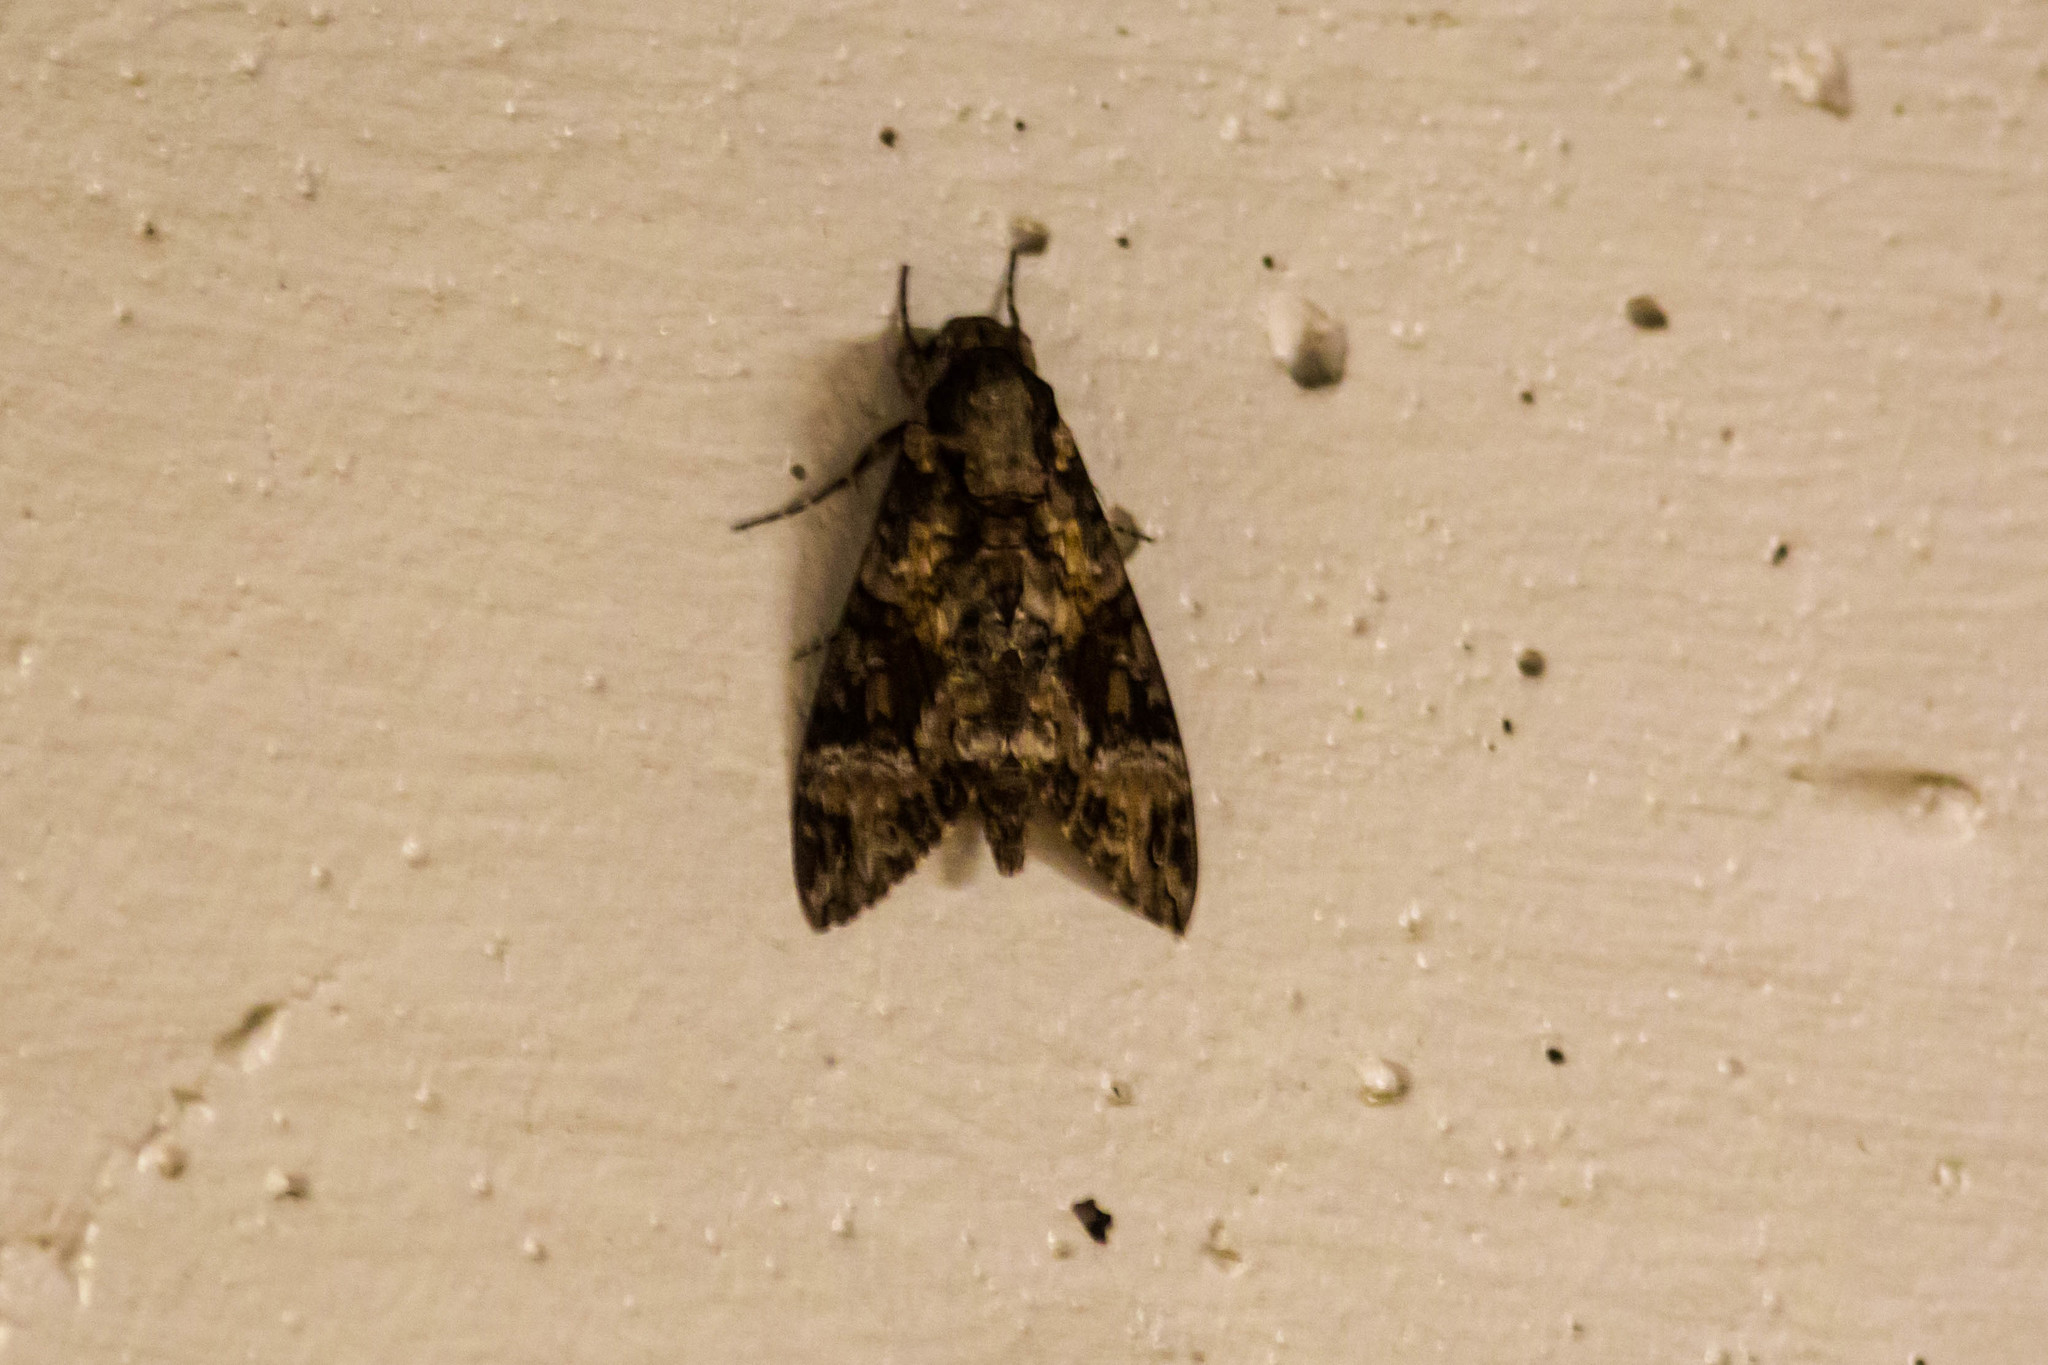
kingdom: Animalia
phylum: Arthropoda
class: Insecta
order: Lepidoptera
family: Sphingidae
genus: Agrius
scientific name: Agrius cingulata
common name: Pink-spotted hawkmoth
